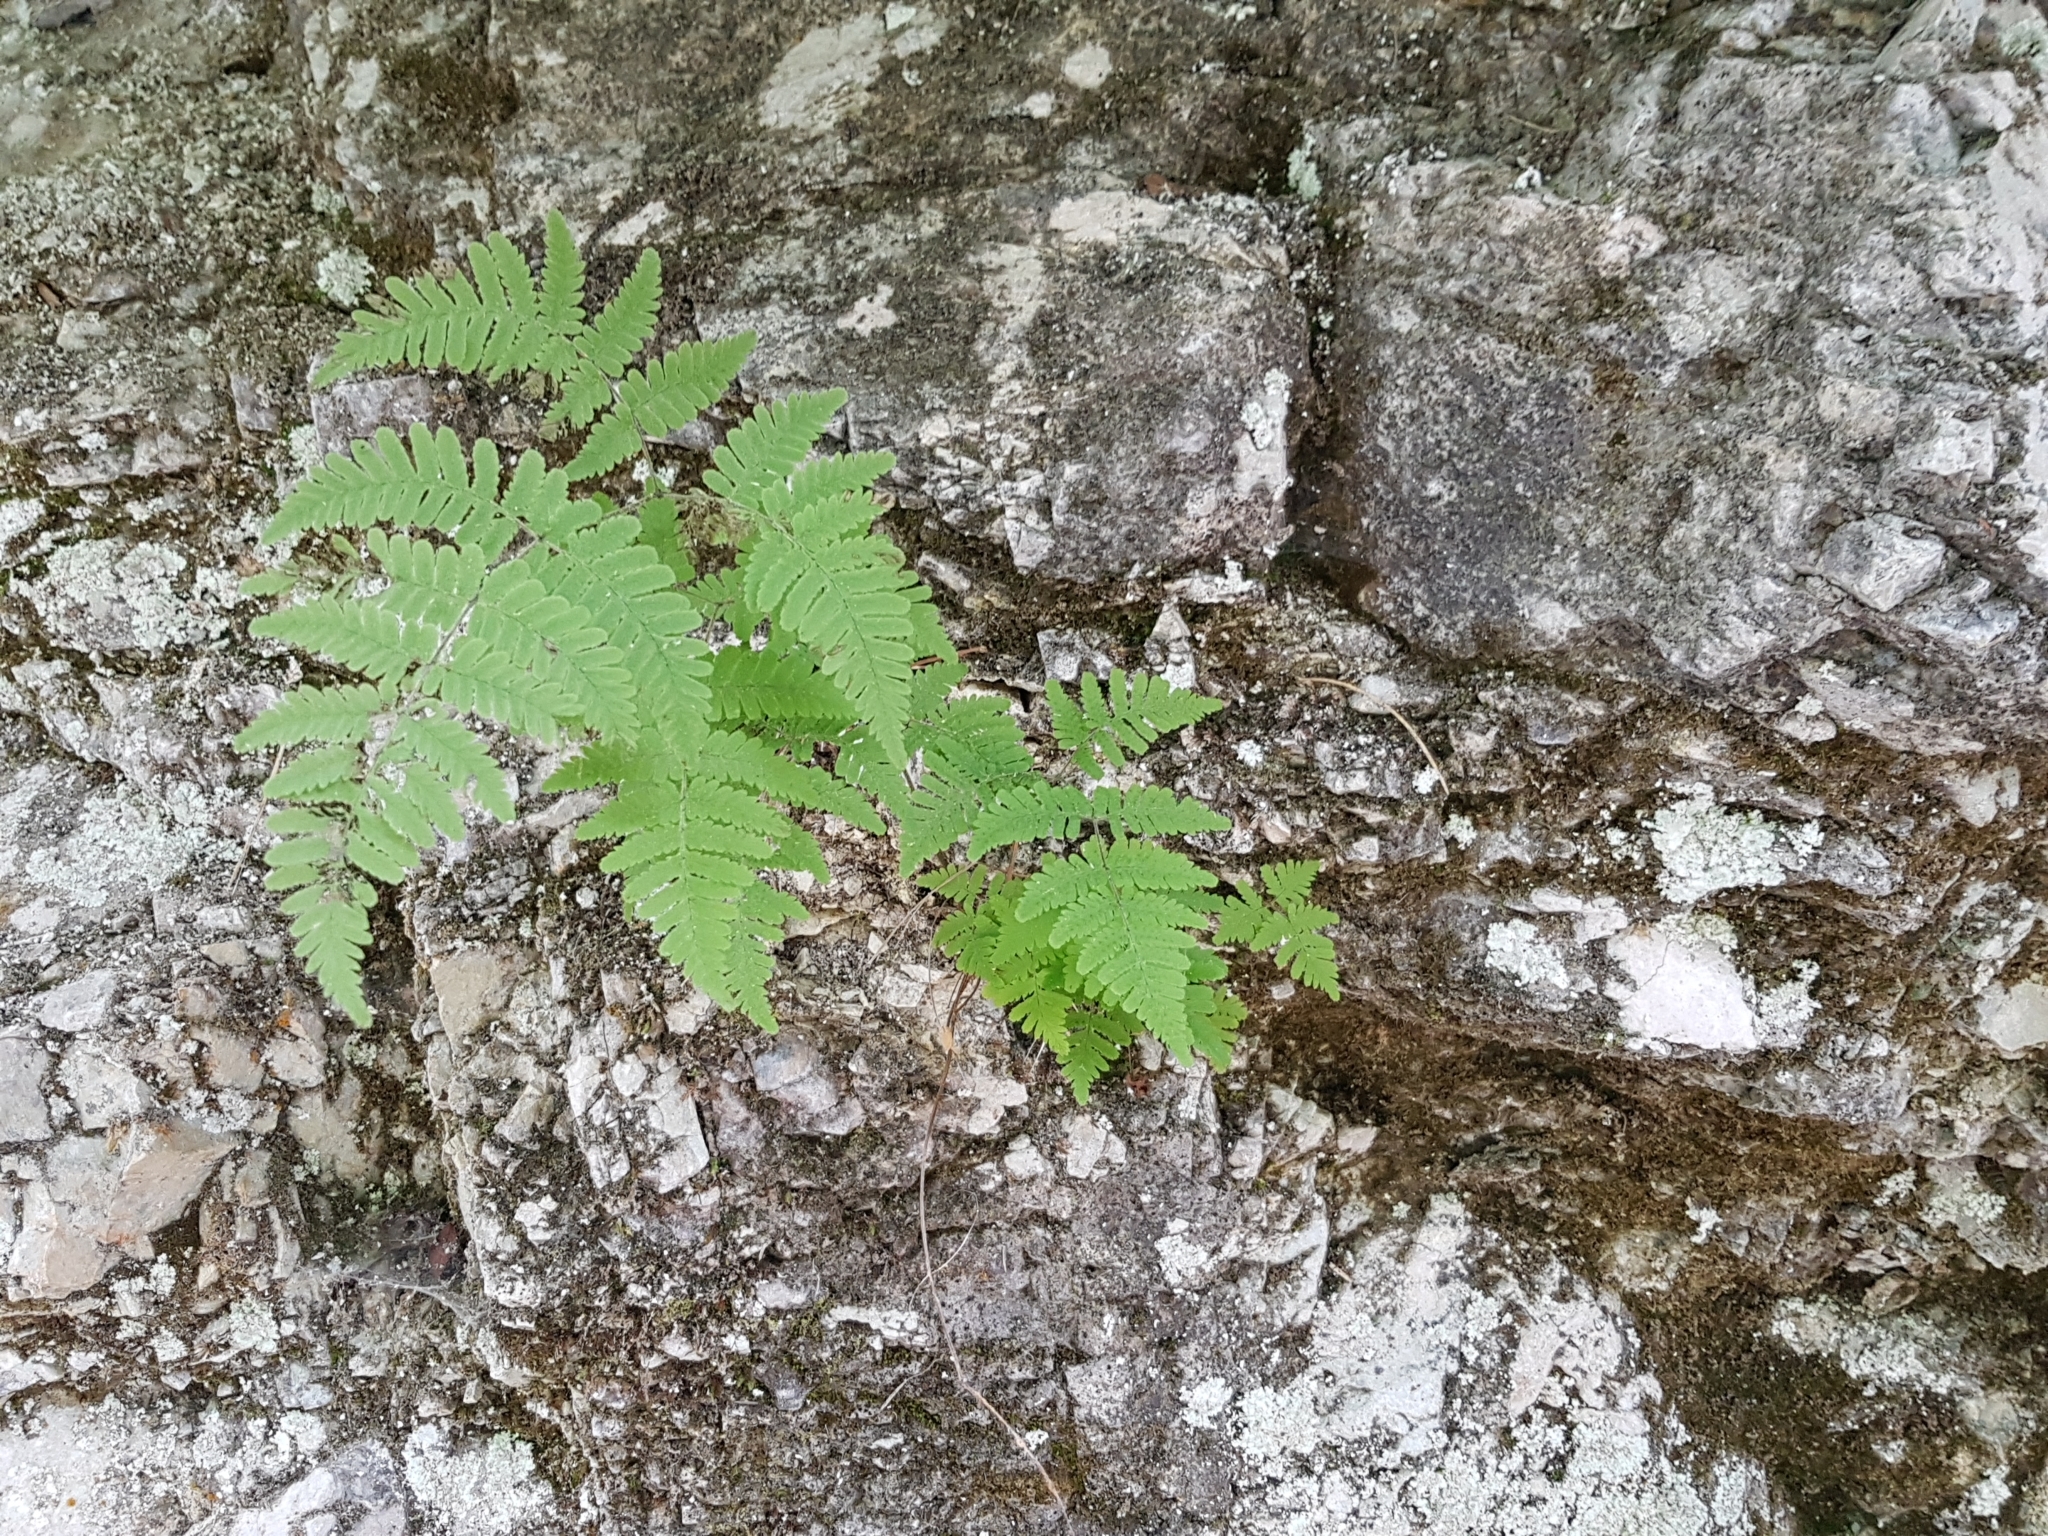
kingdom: Plantae
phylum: Tracheophyta
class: Polypodiopsida
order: Polypodiales
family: Cystopteridaceae
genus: Gymnocarpium
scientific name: Gymnocarpium robertianum
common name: Limestone fern
